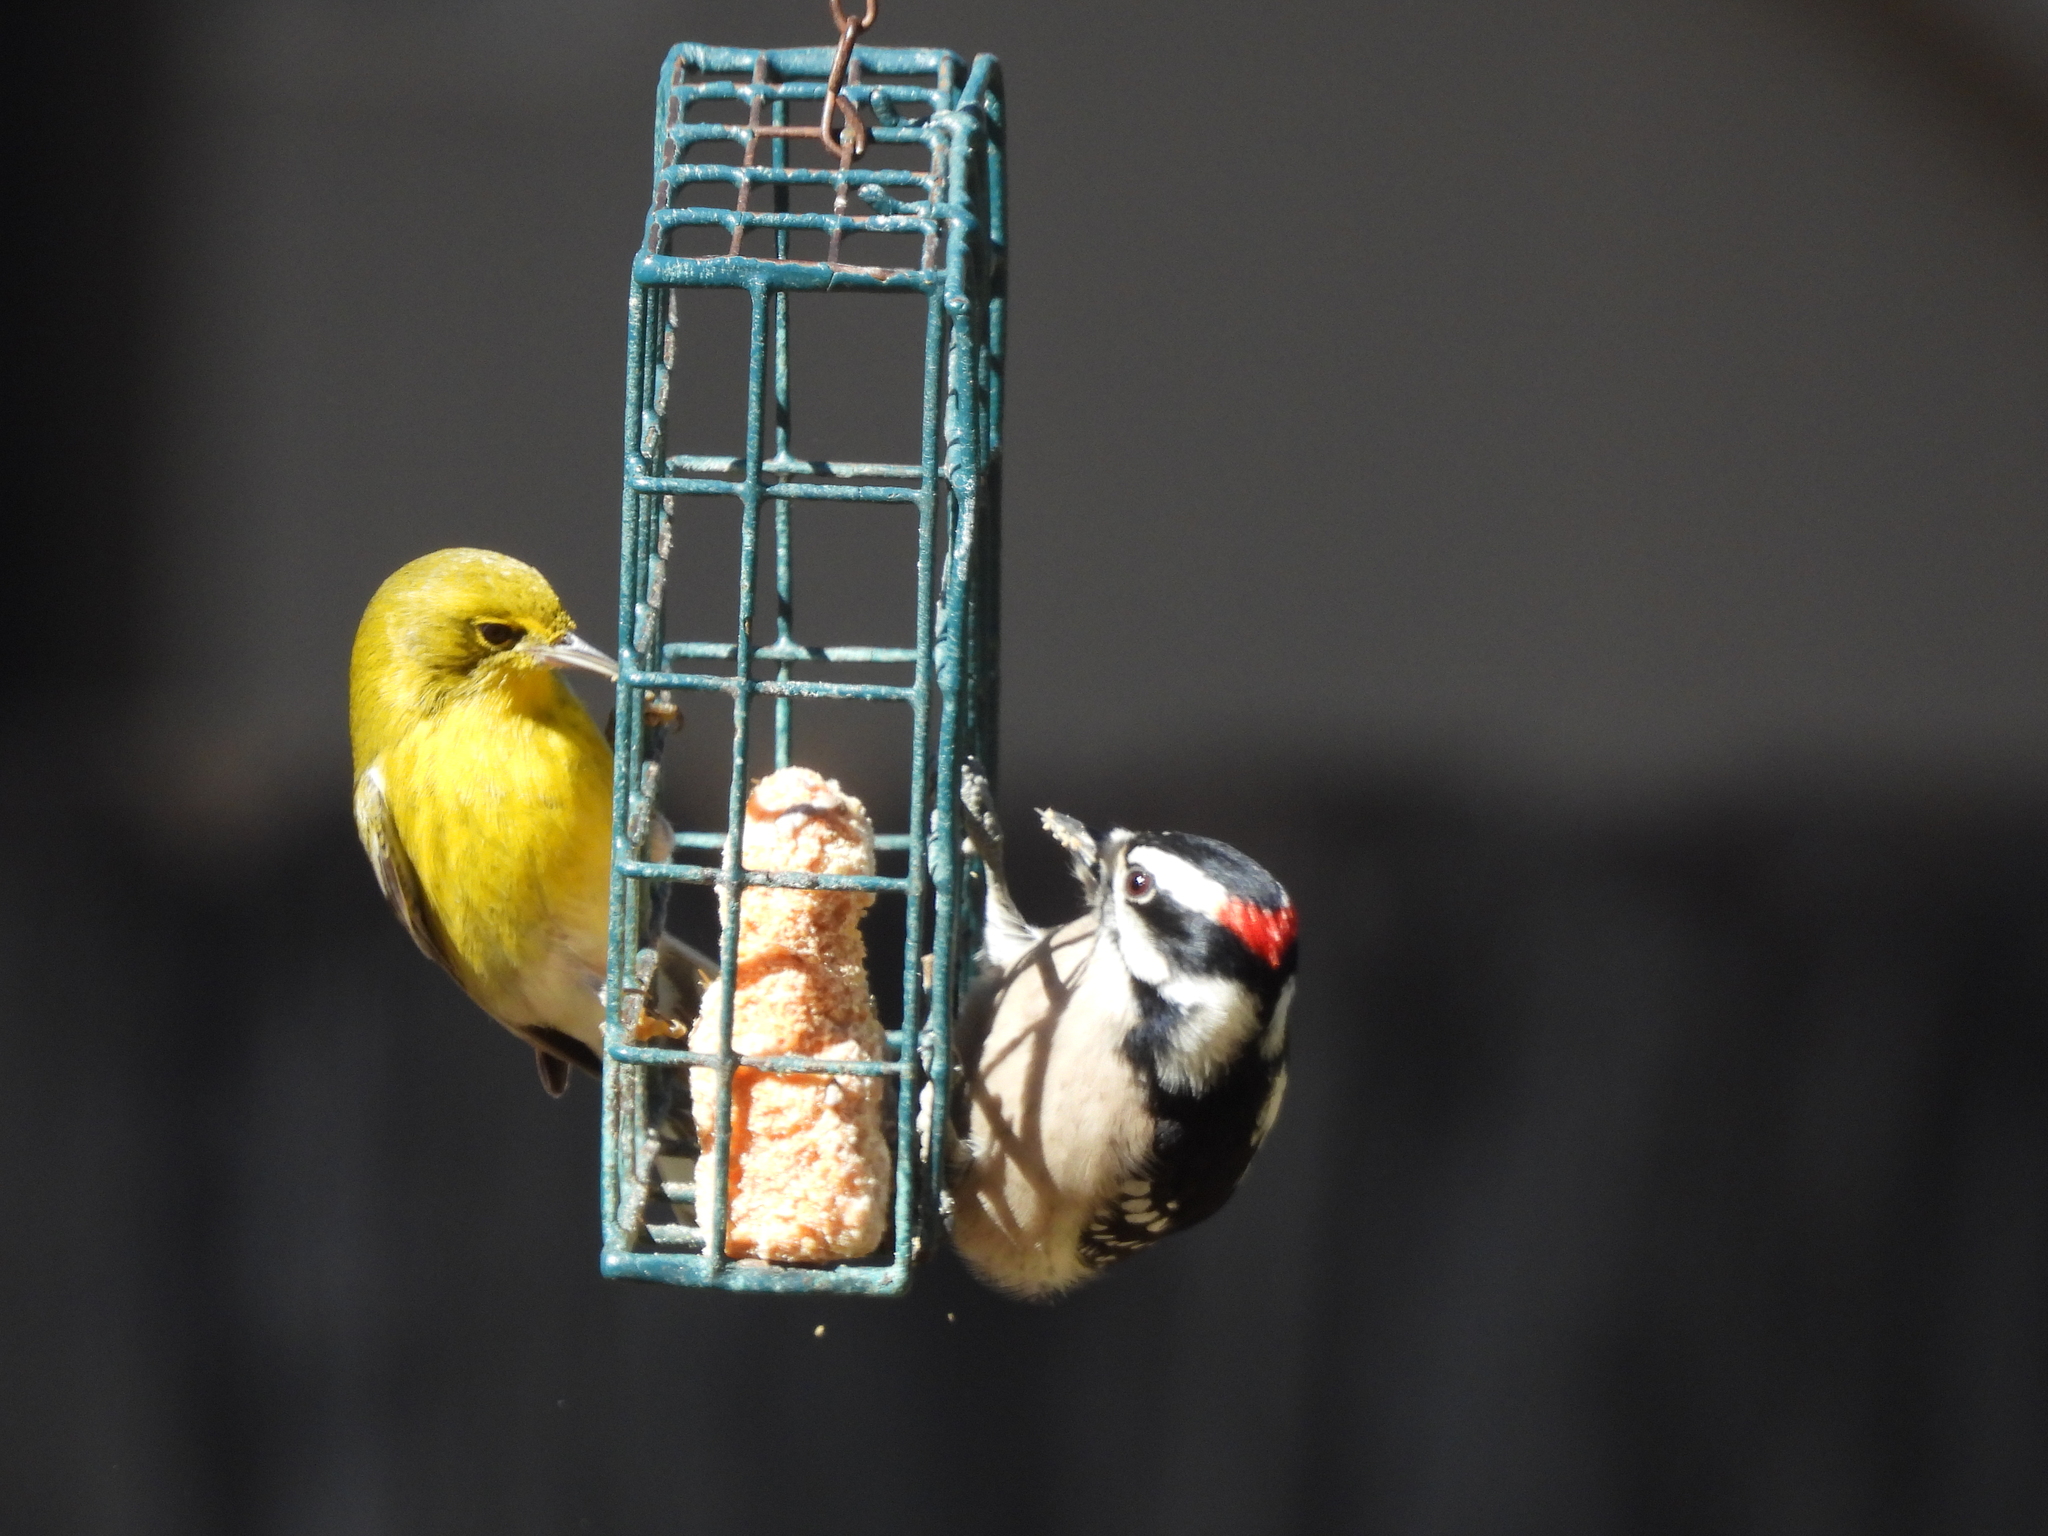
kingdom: Animalia
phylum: Chordata
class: Aves
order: Piciformes
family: Picidae
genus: Dryobates
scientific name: Dryobates pubescens
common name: Downy woodpecker
